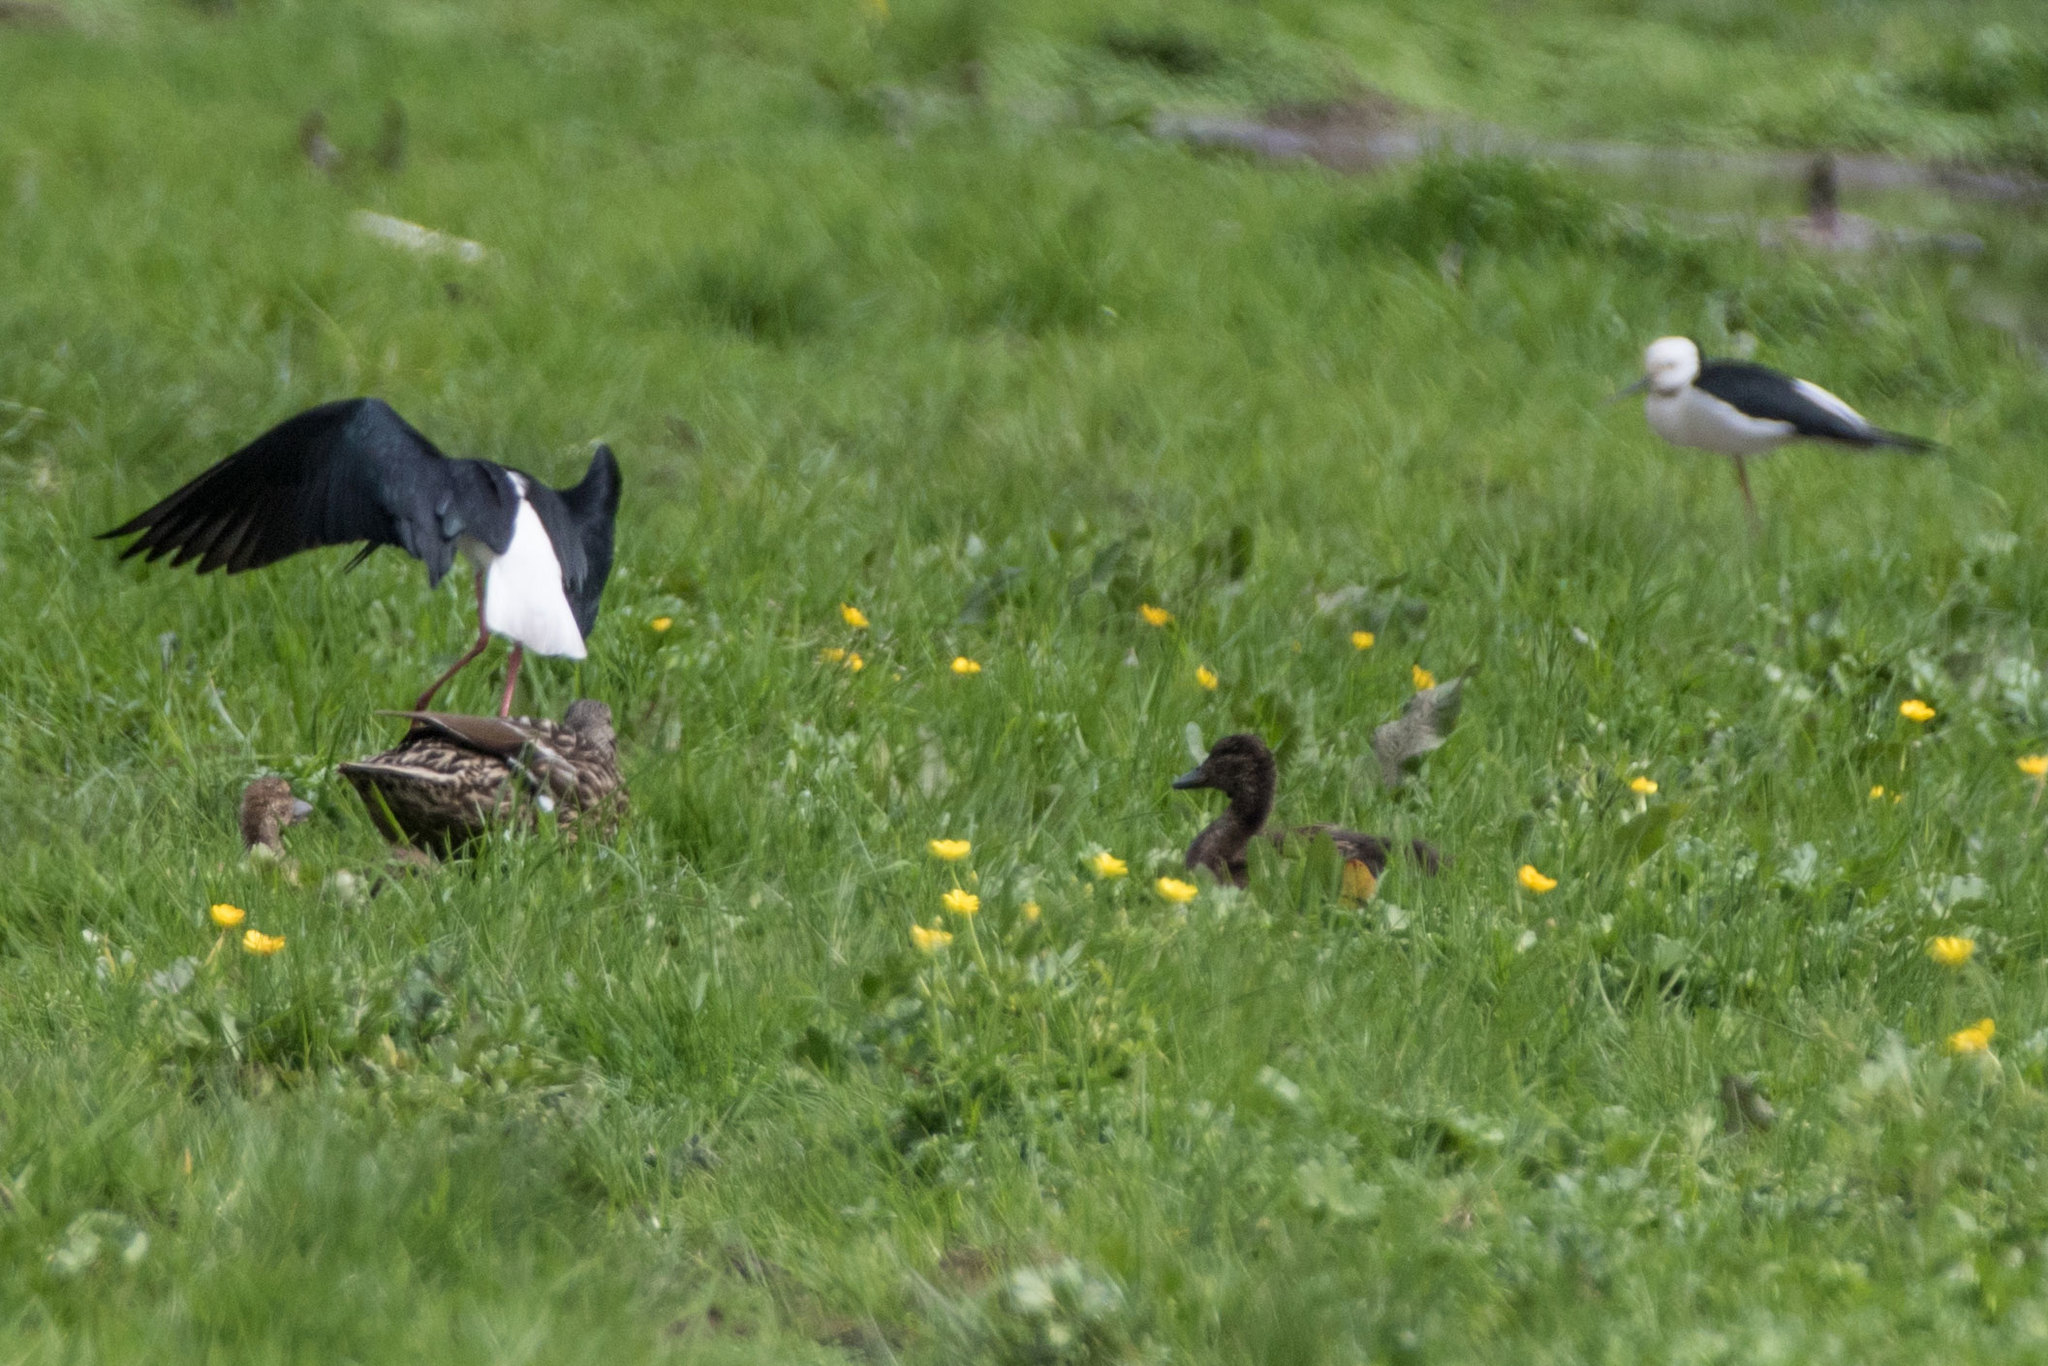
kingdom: Animalia
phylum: Chordata
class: Aves
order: Charadriiformes
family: Recurvirostridae
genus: Himantopus
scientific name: Himantopus leucocephalus
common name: White-headed stilt
